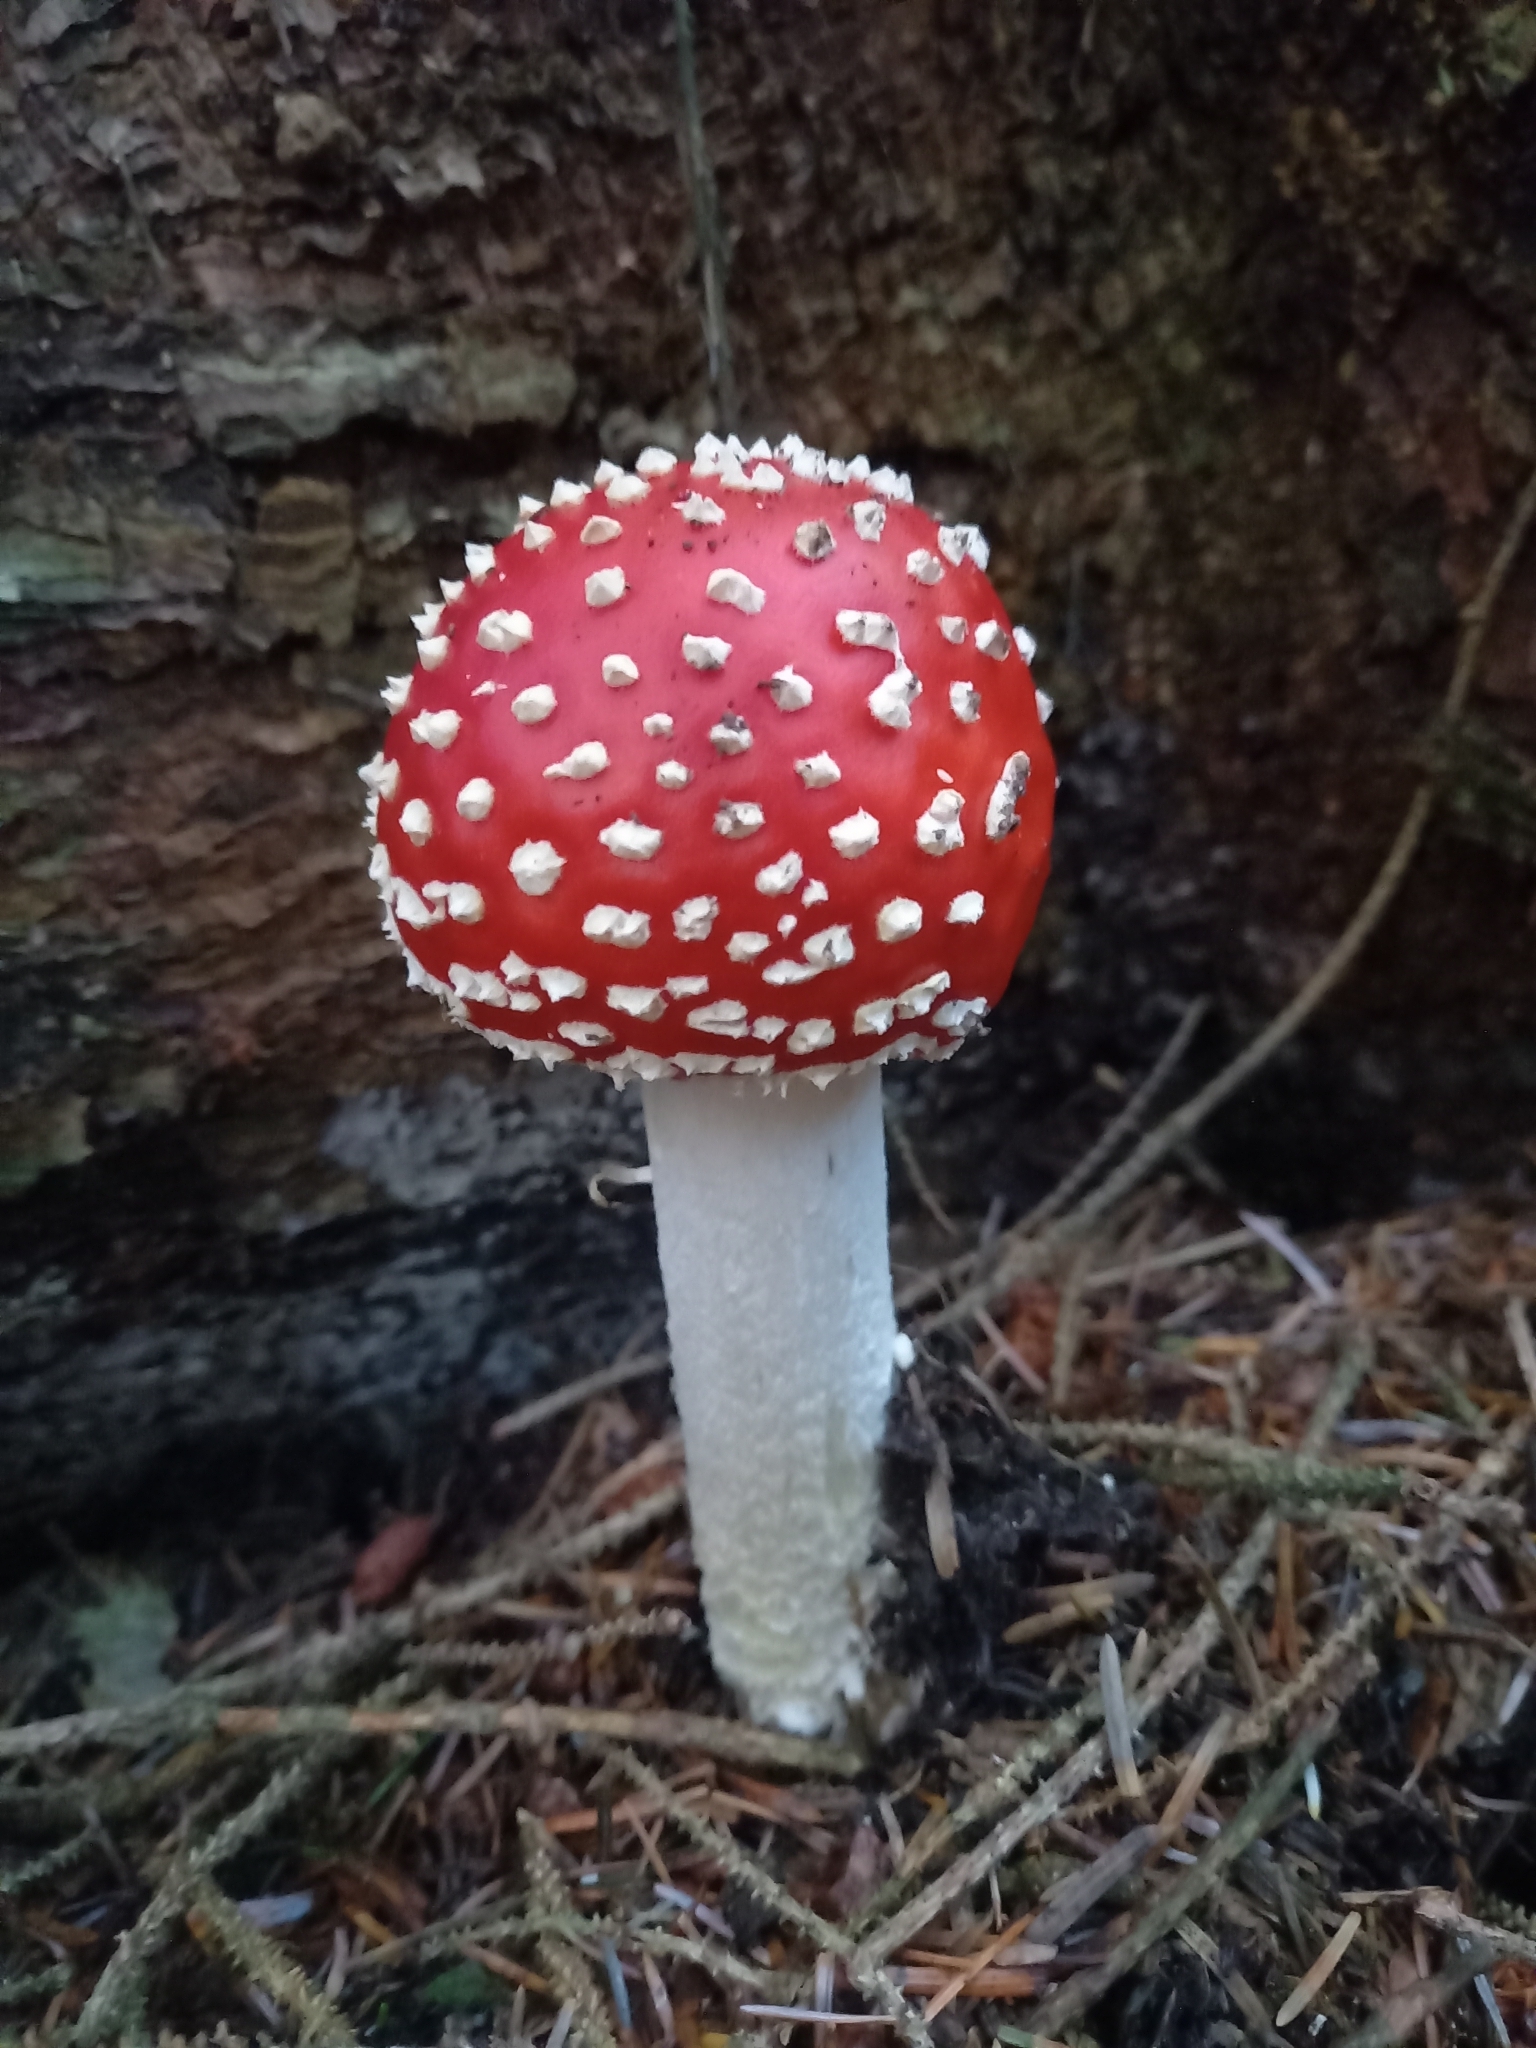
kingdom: Fungi
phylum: Basidiomycota
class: Agaricomycetes
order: Agaricales
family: Amanitaceae
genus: Amanita
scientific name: Amanita muscaria
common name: Fly agaric
